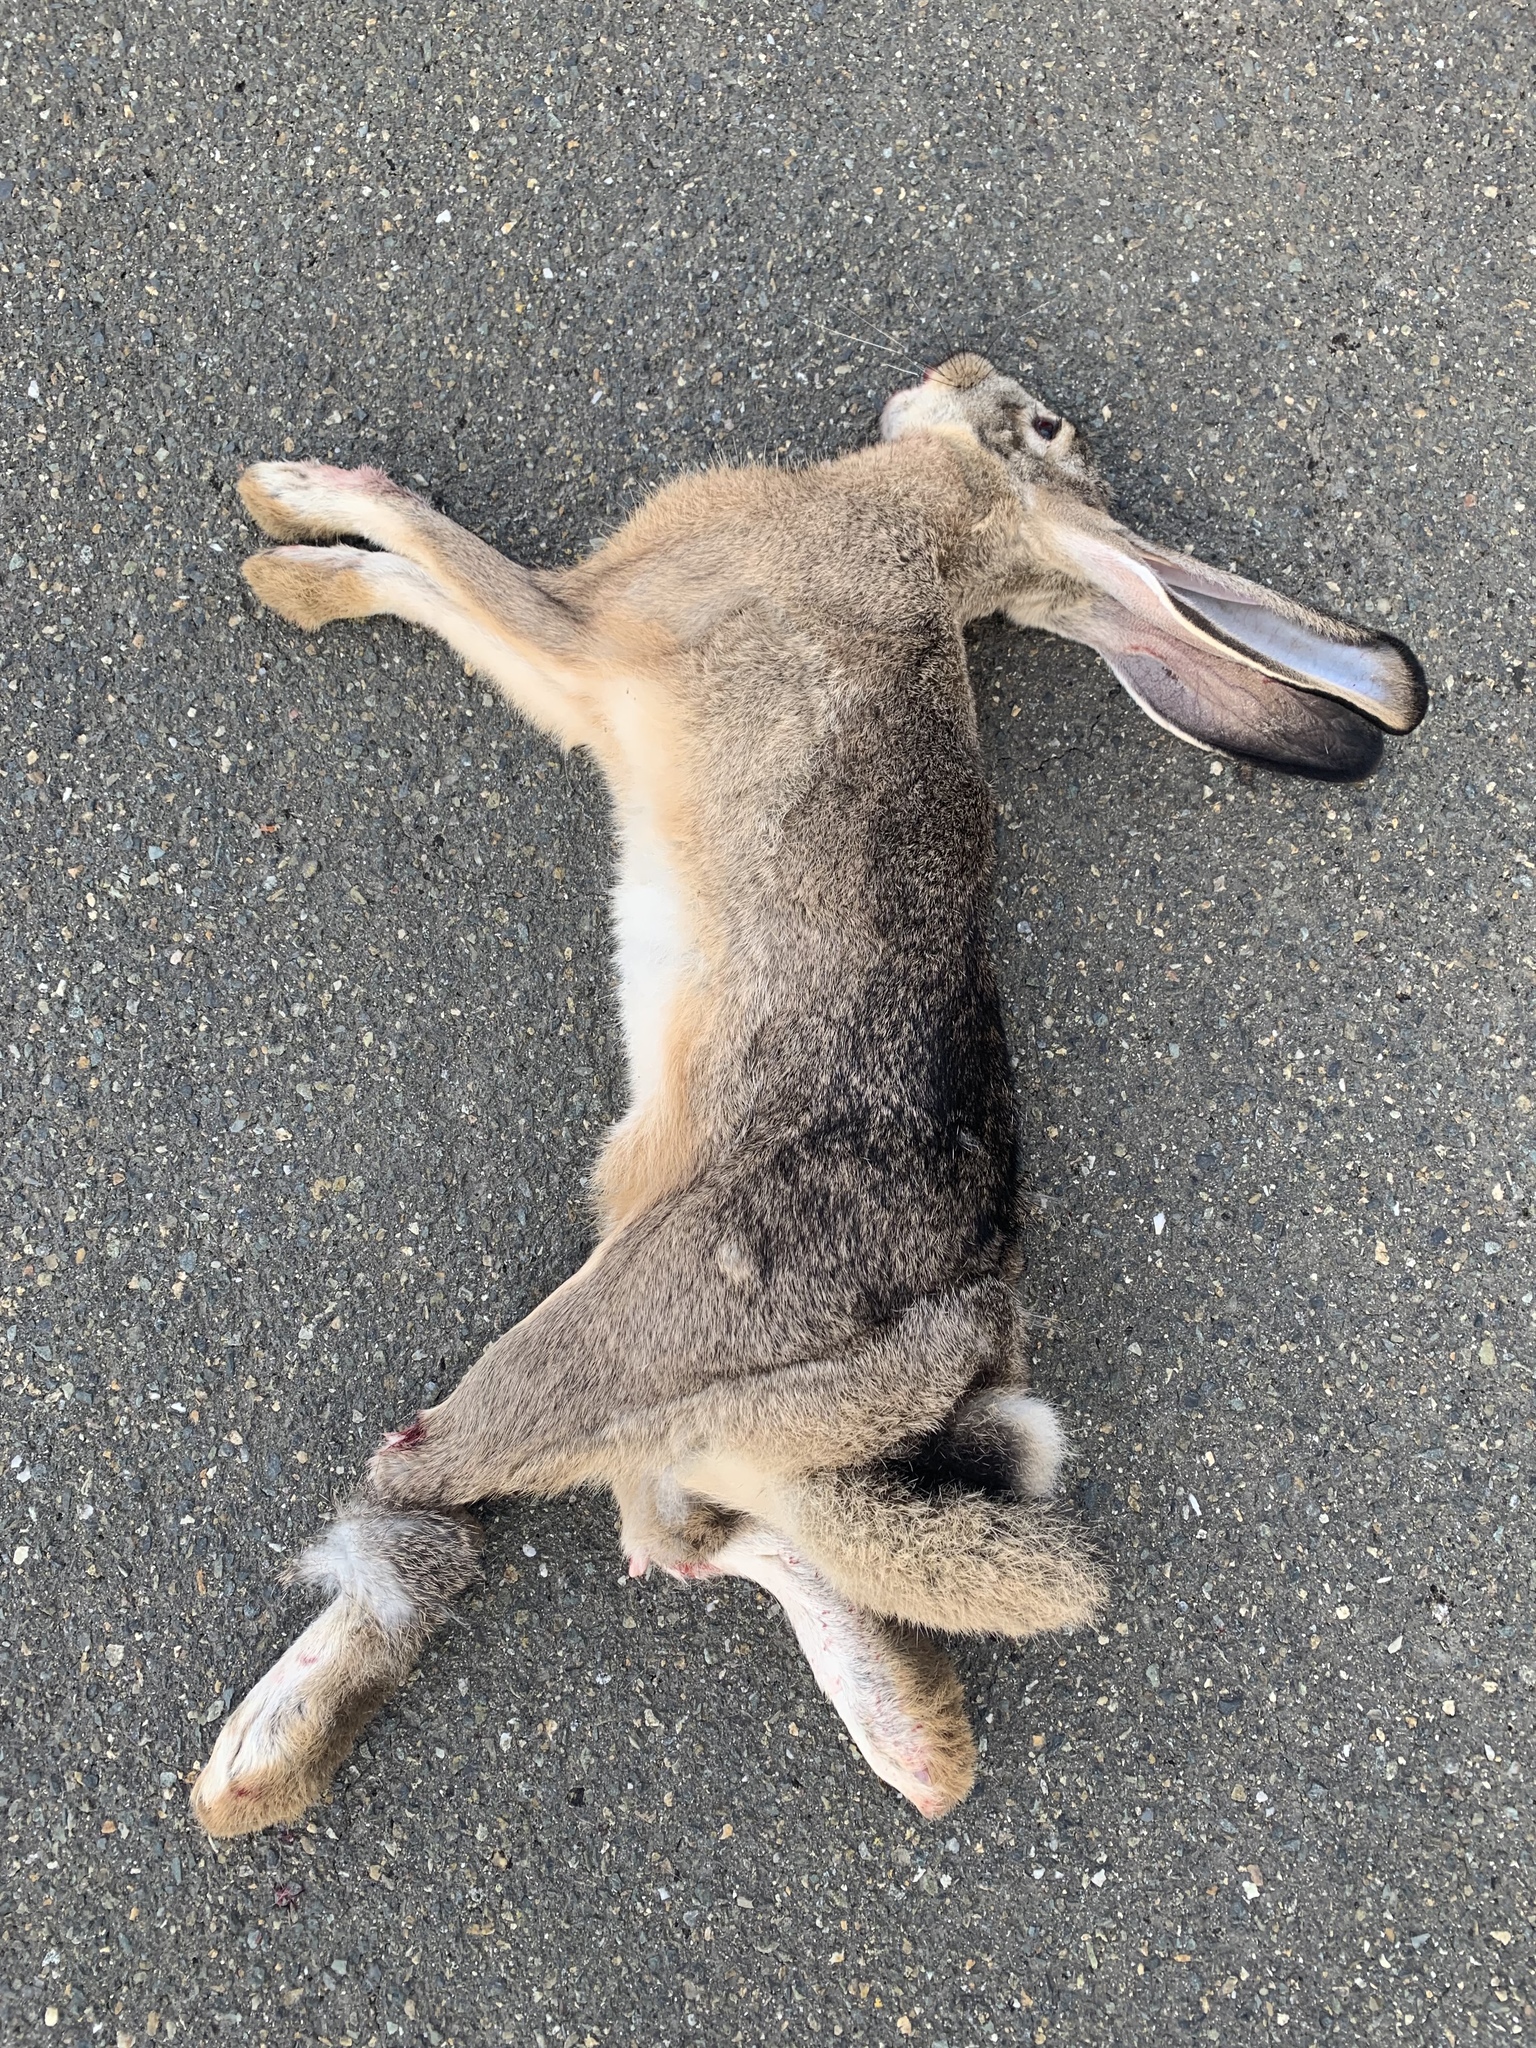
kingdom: Animalia
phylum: Chordata
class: Mammalia
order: Lagomorpha
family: Leporidae
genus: Lepus
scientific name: Lepus californicus
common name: Black-tailed jackrabbit
